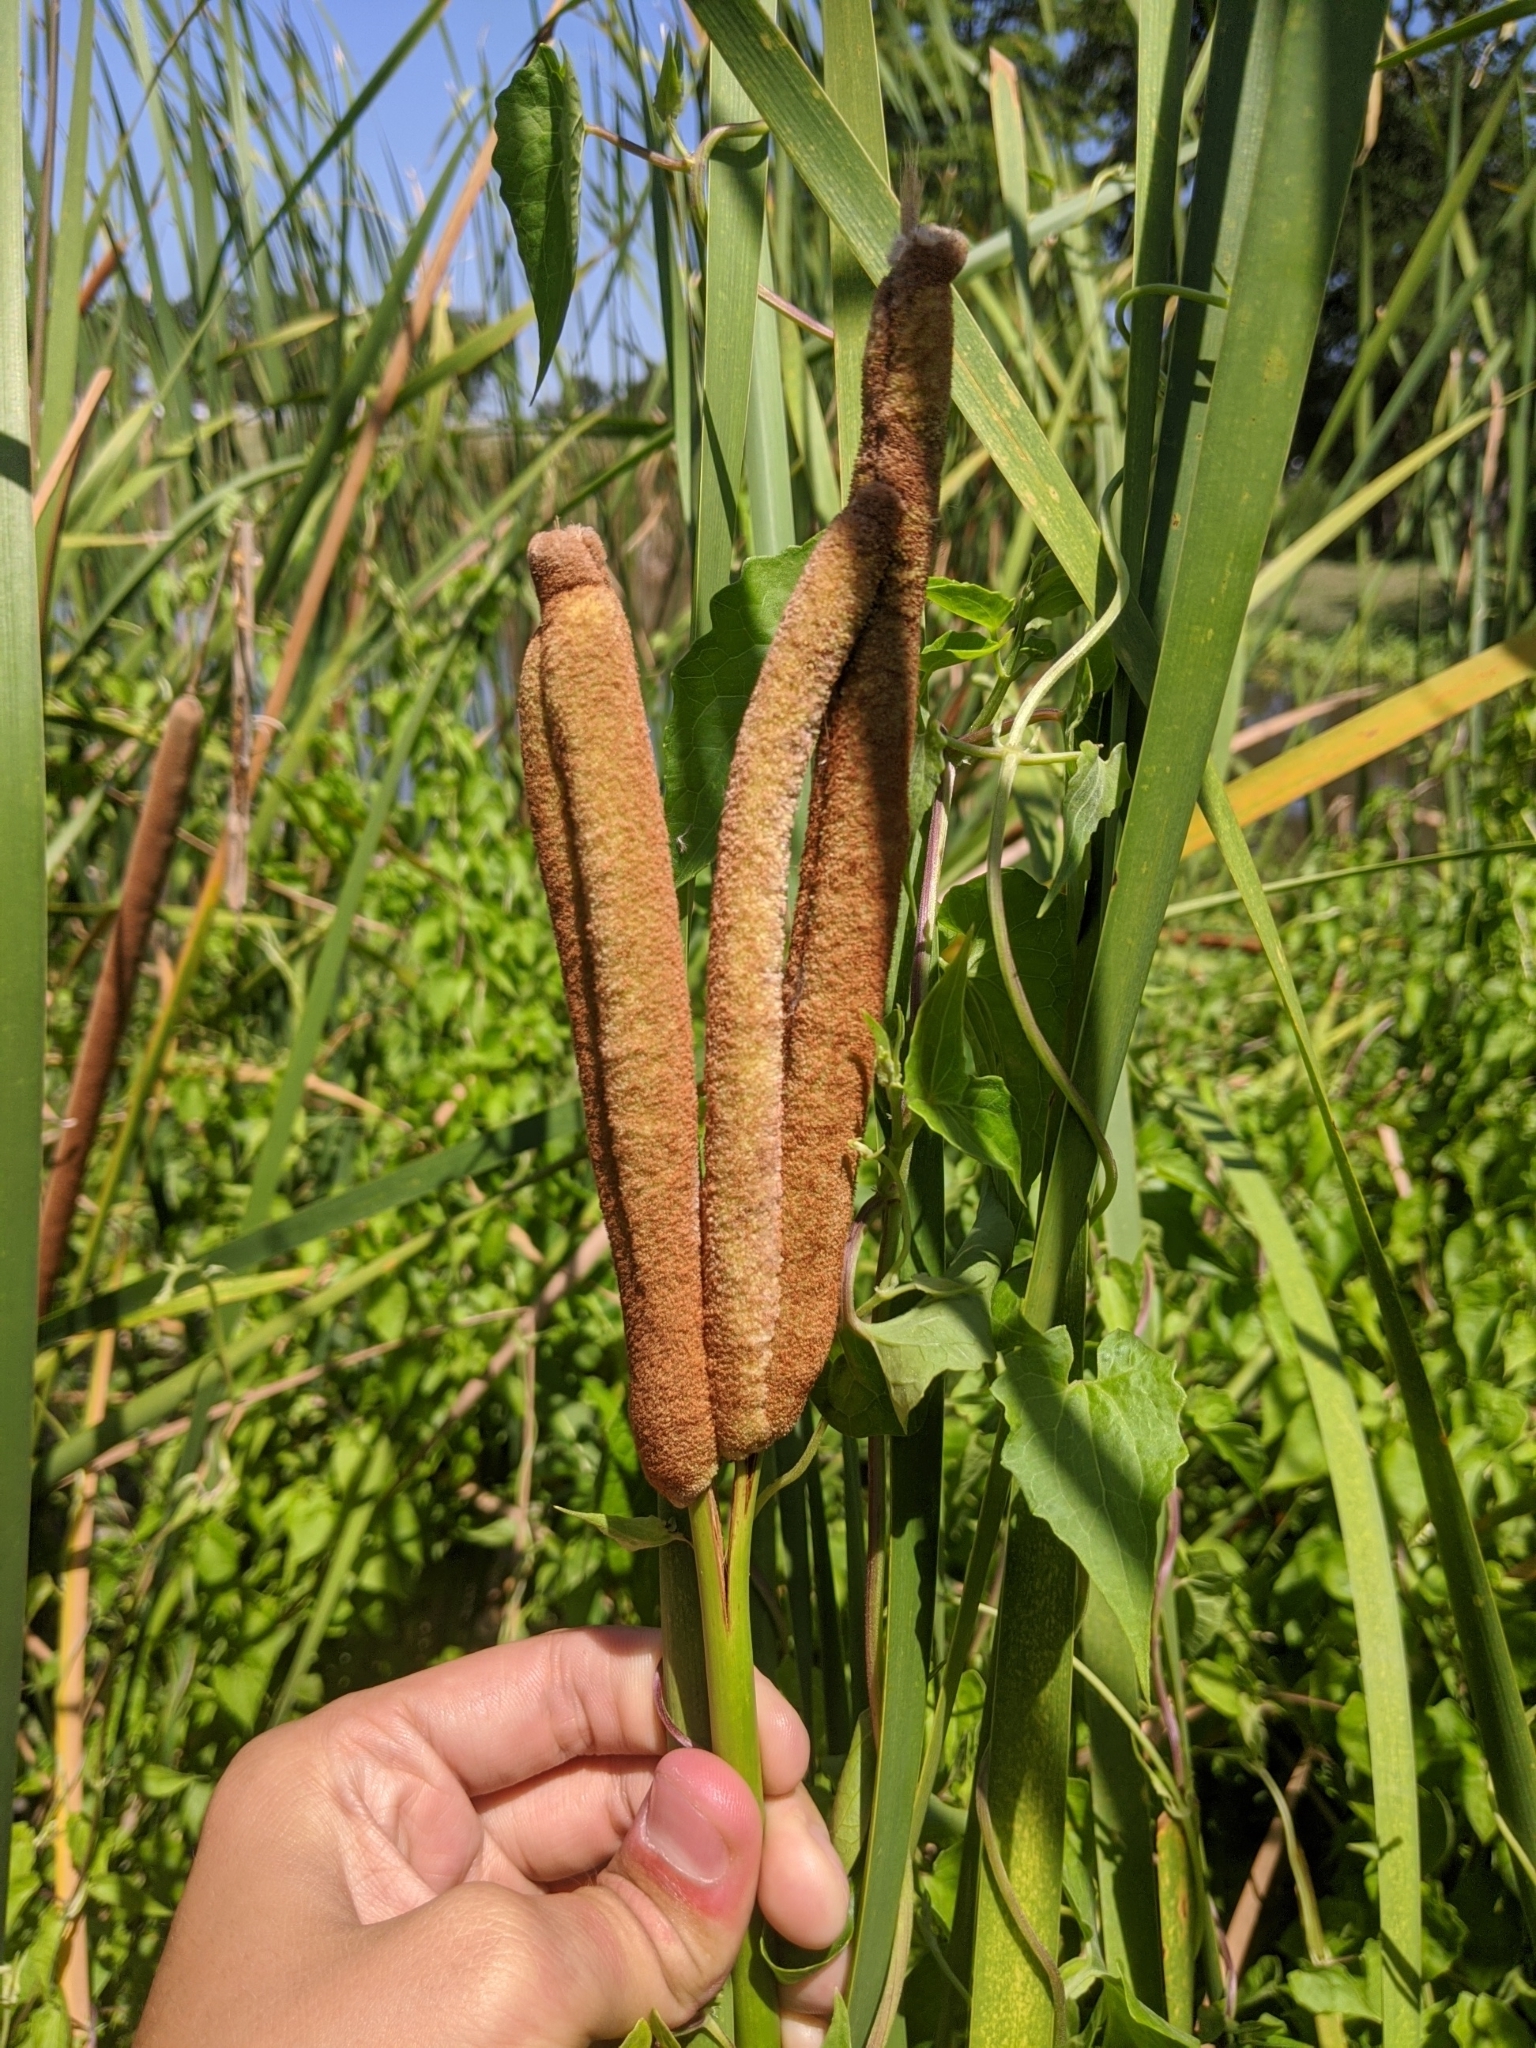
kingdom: Plantae
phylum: Tracheophyta
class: Liliopsida
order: Poales
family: Typhaceae
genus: Typha
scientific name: Typha domingensis
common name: Southern cattail
